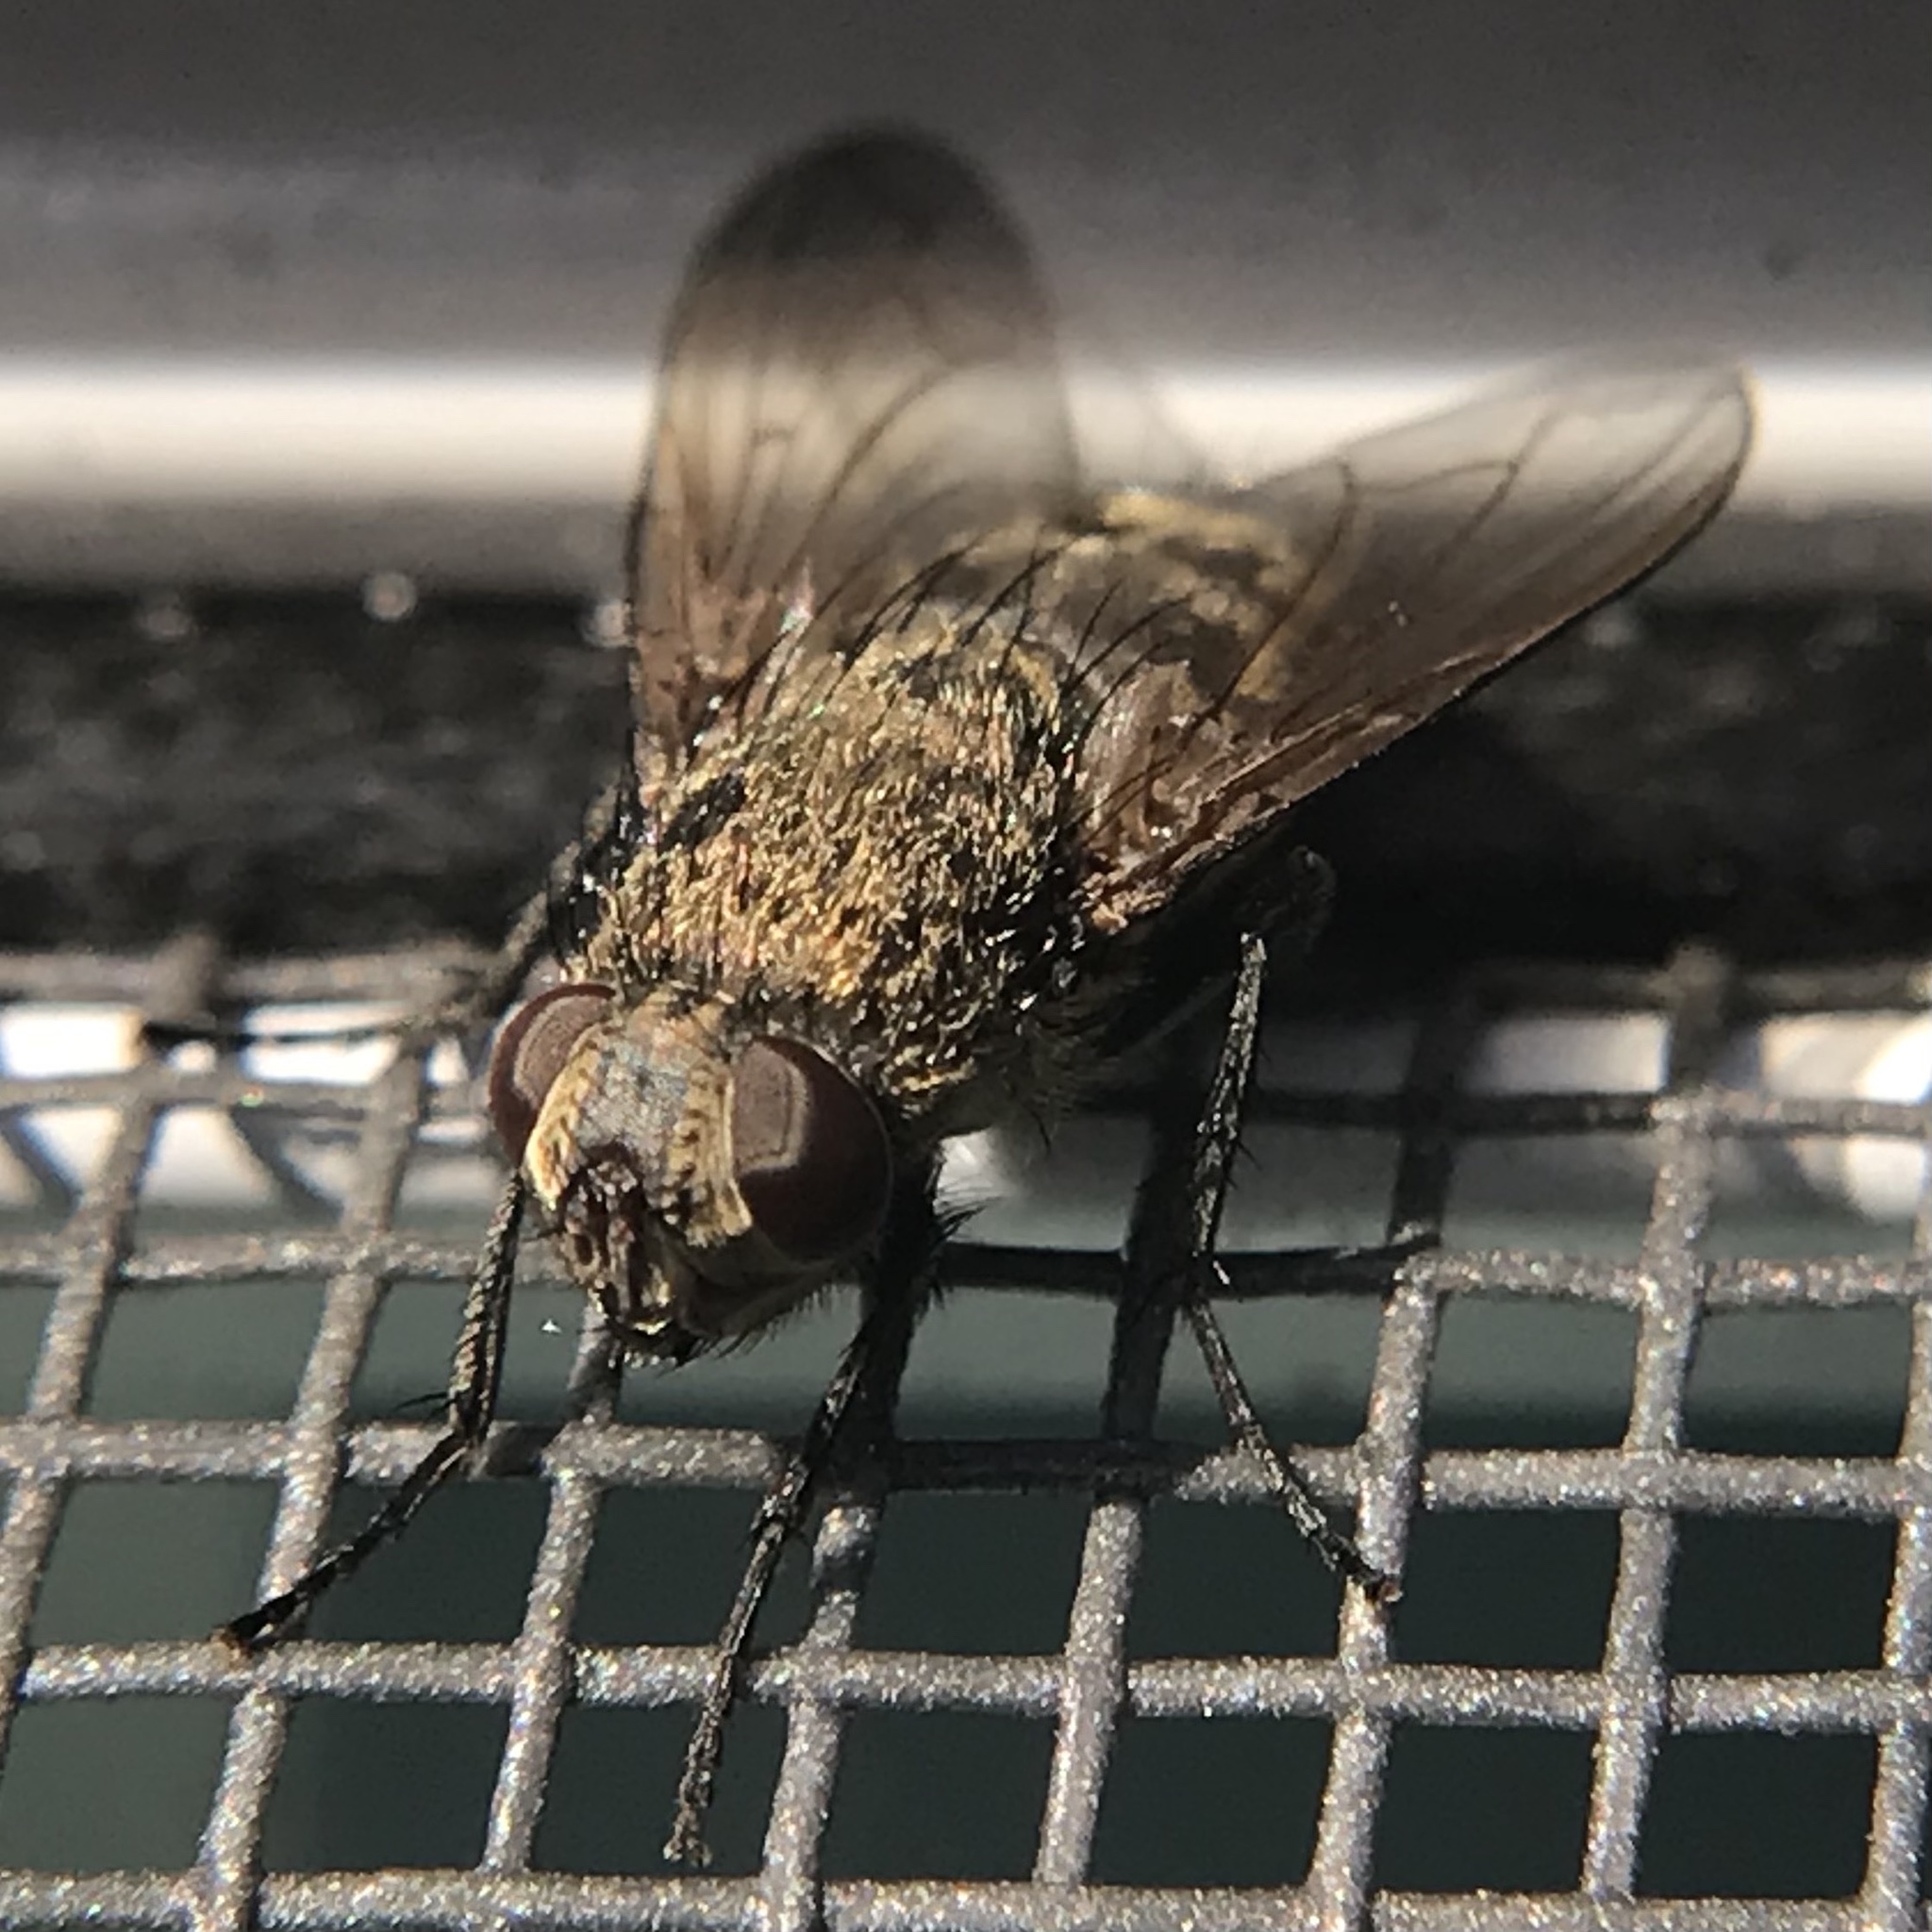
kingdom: Animalia
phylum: Arthropoda
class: Insecta
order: Diptera
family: Polleniidae
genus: Pollenia
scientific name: Pollenia
